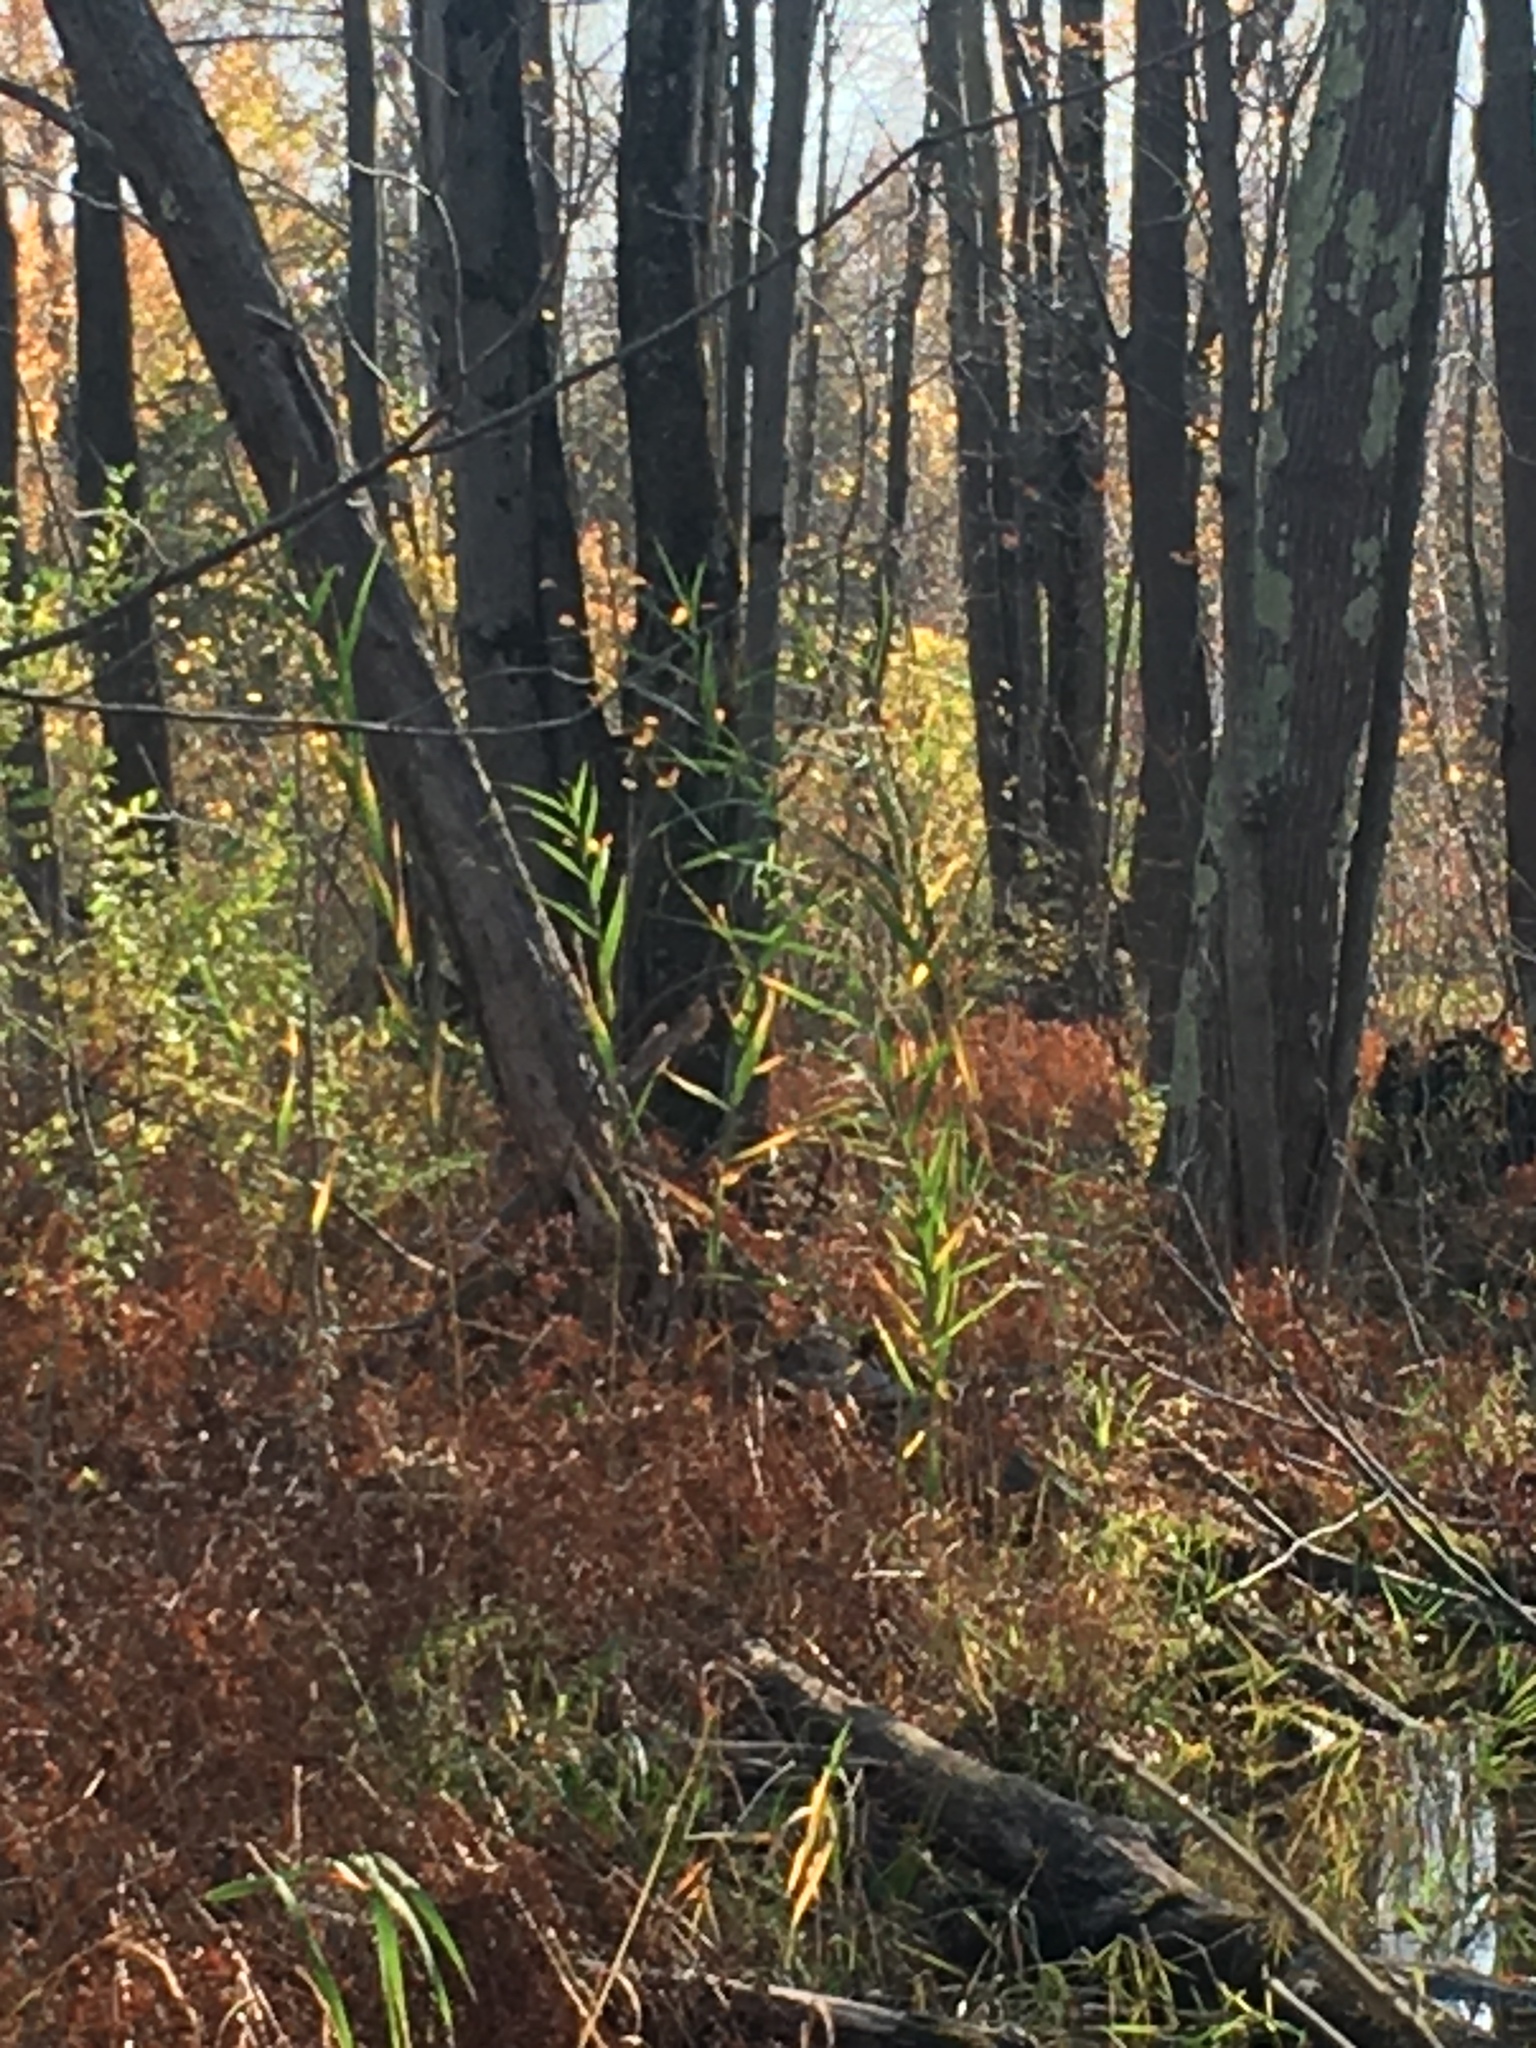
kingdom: Plantae
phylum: Tracheophyta
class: Liliopsida
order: Poales
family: Poaceae
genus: Phragmites
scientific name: Phragmites australis
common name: Common reed
